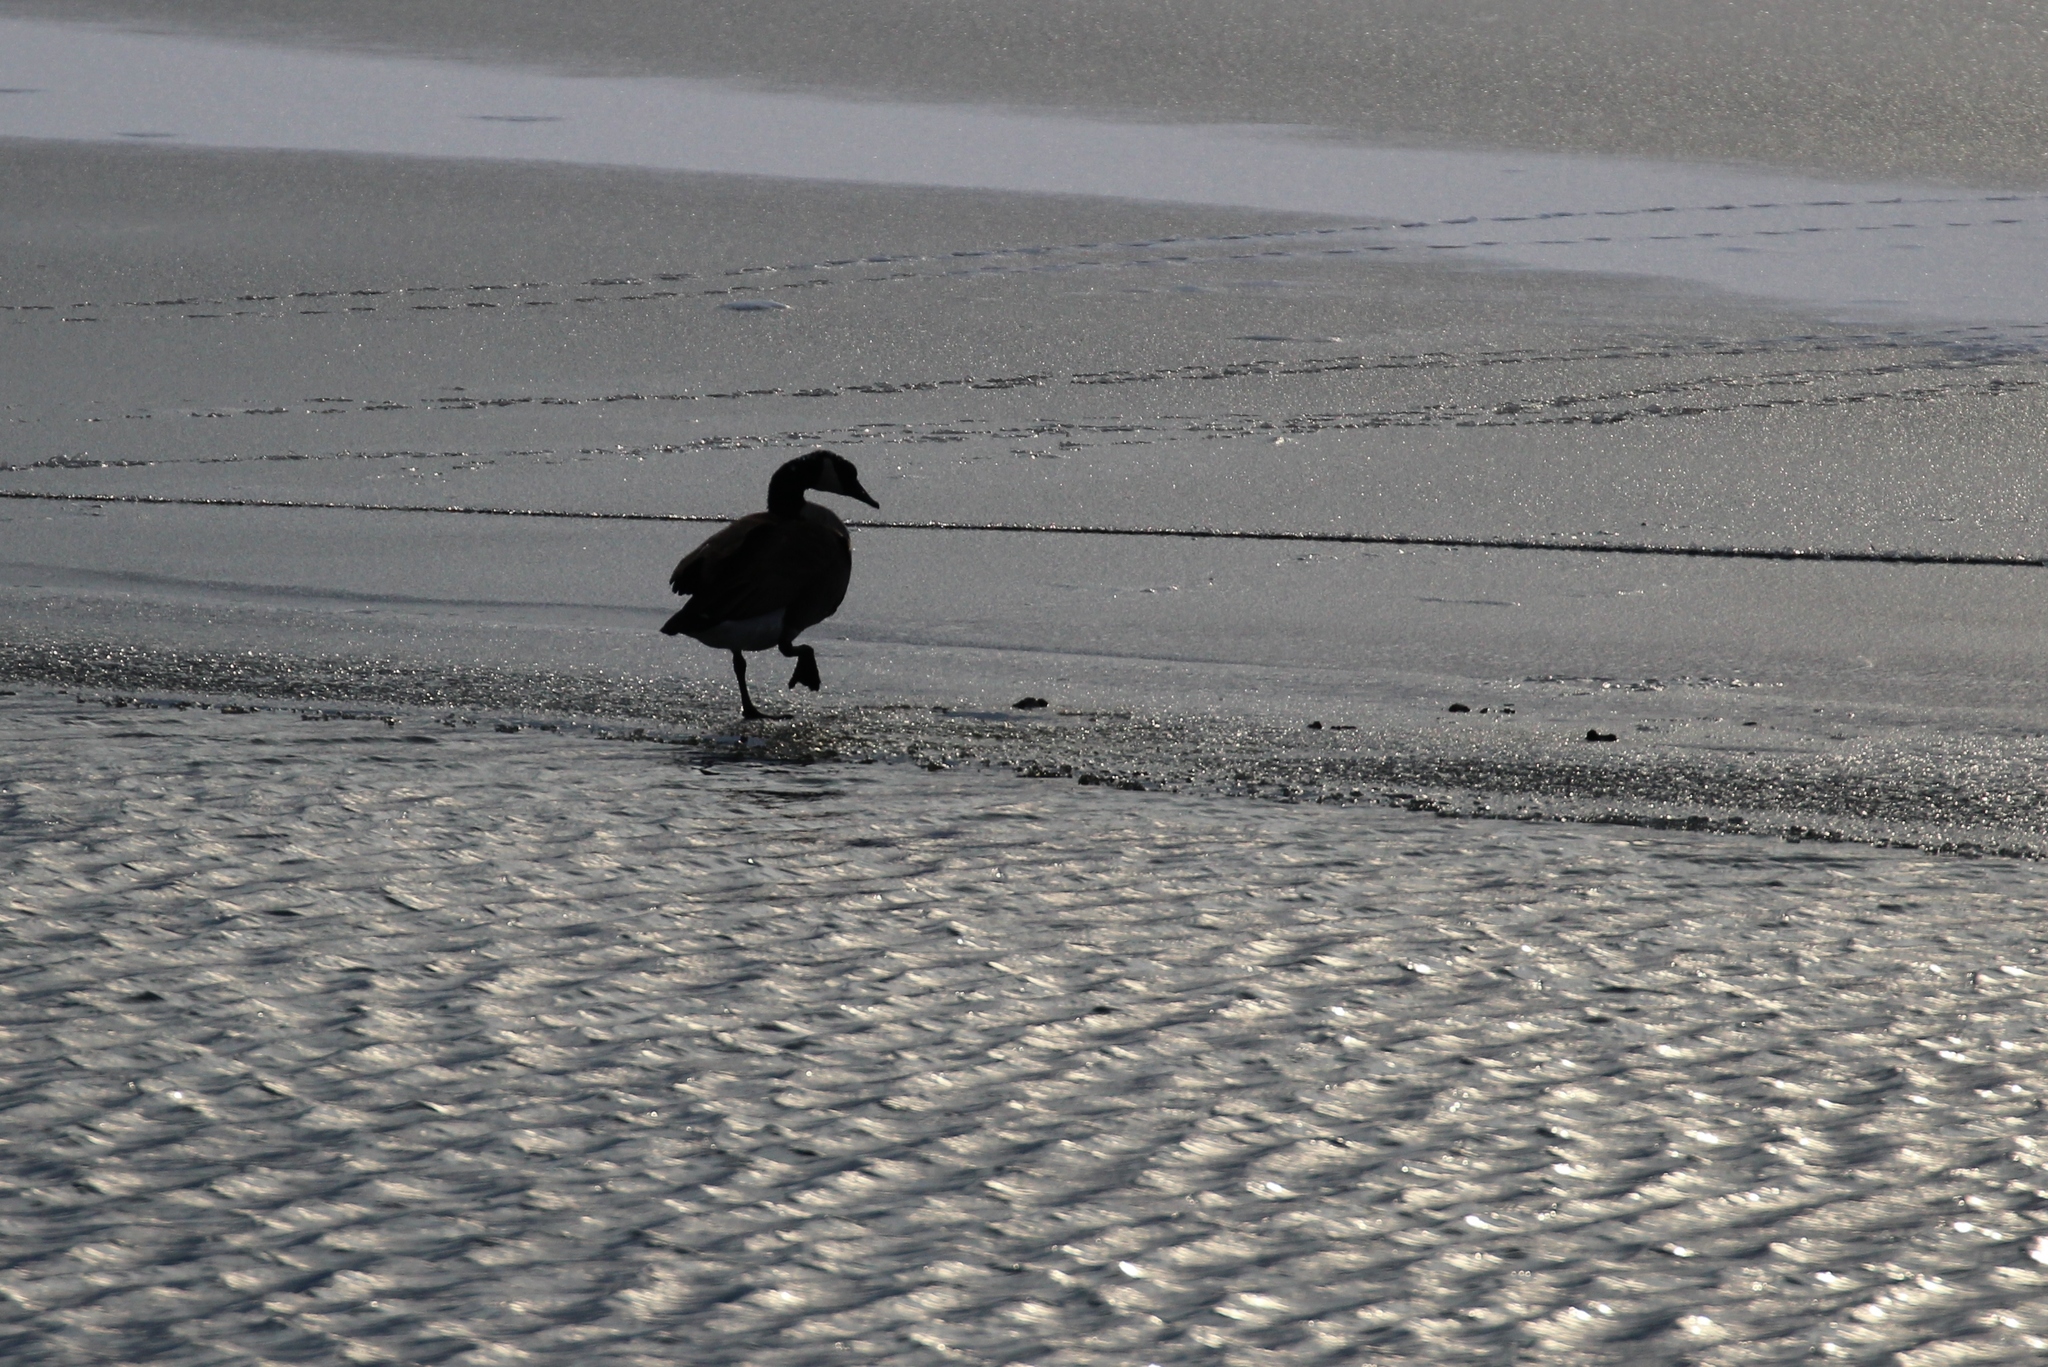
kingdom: Animalia
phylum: Chordata
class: Aves
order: Anseriformes
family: Anatidae
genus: Branta
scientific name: Branta canadensis
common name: Canada goose
